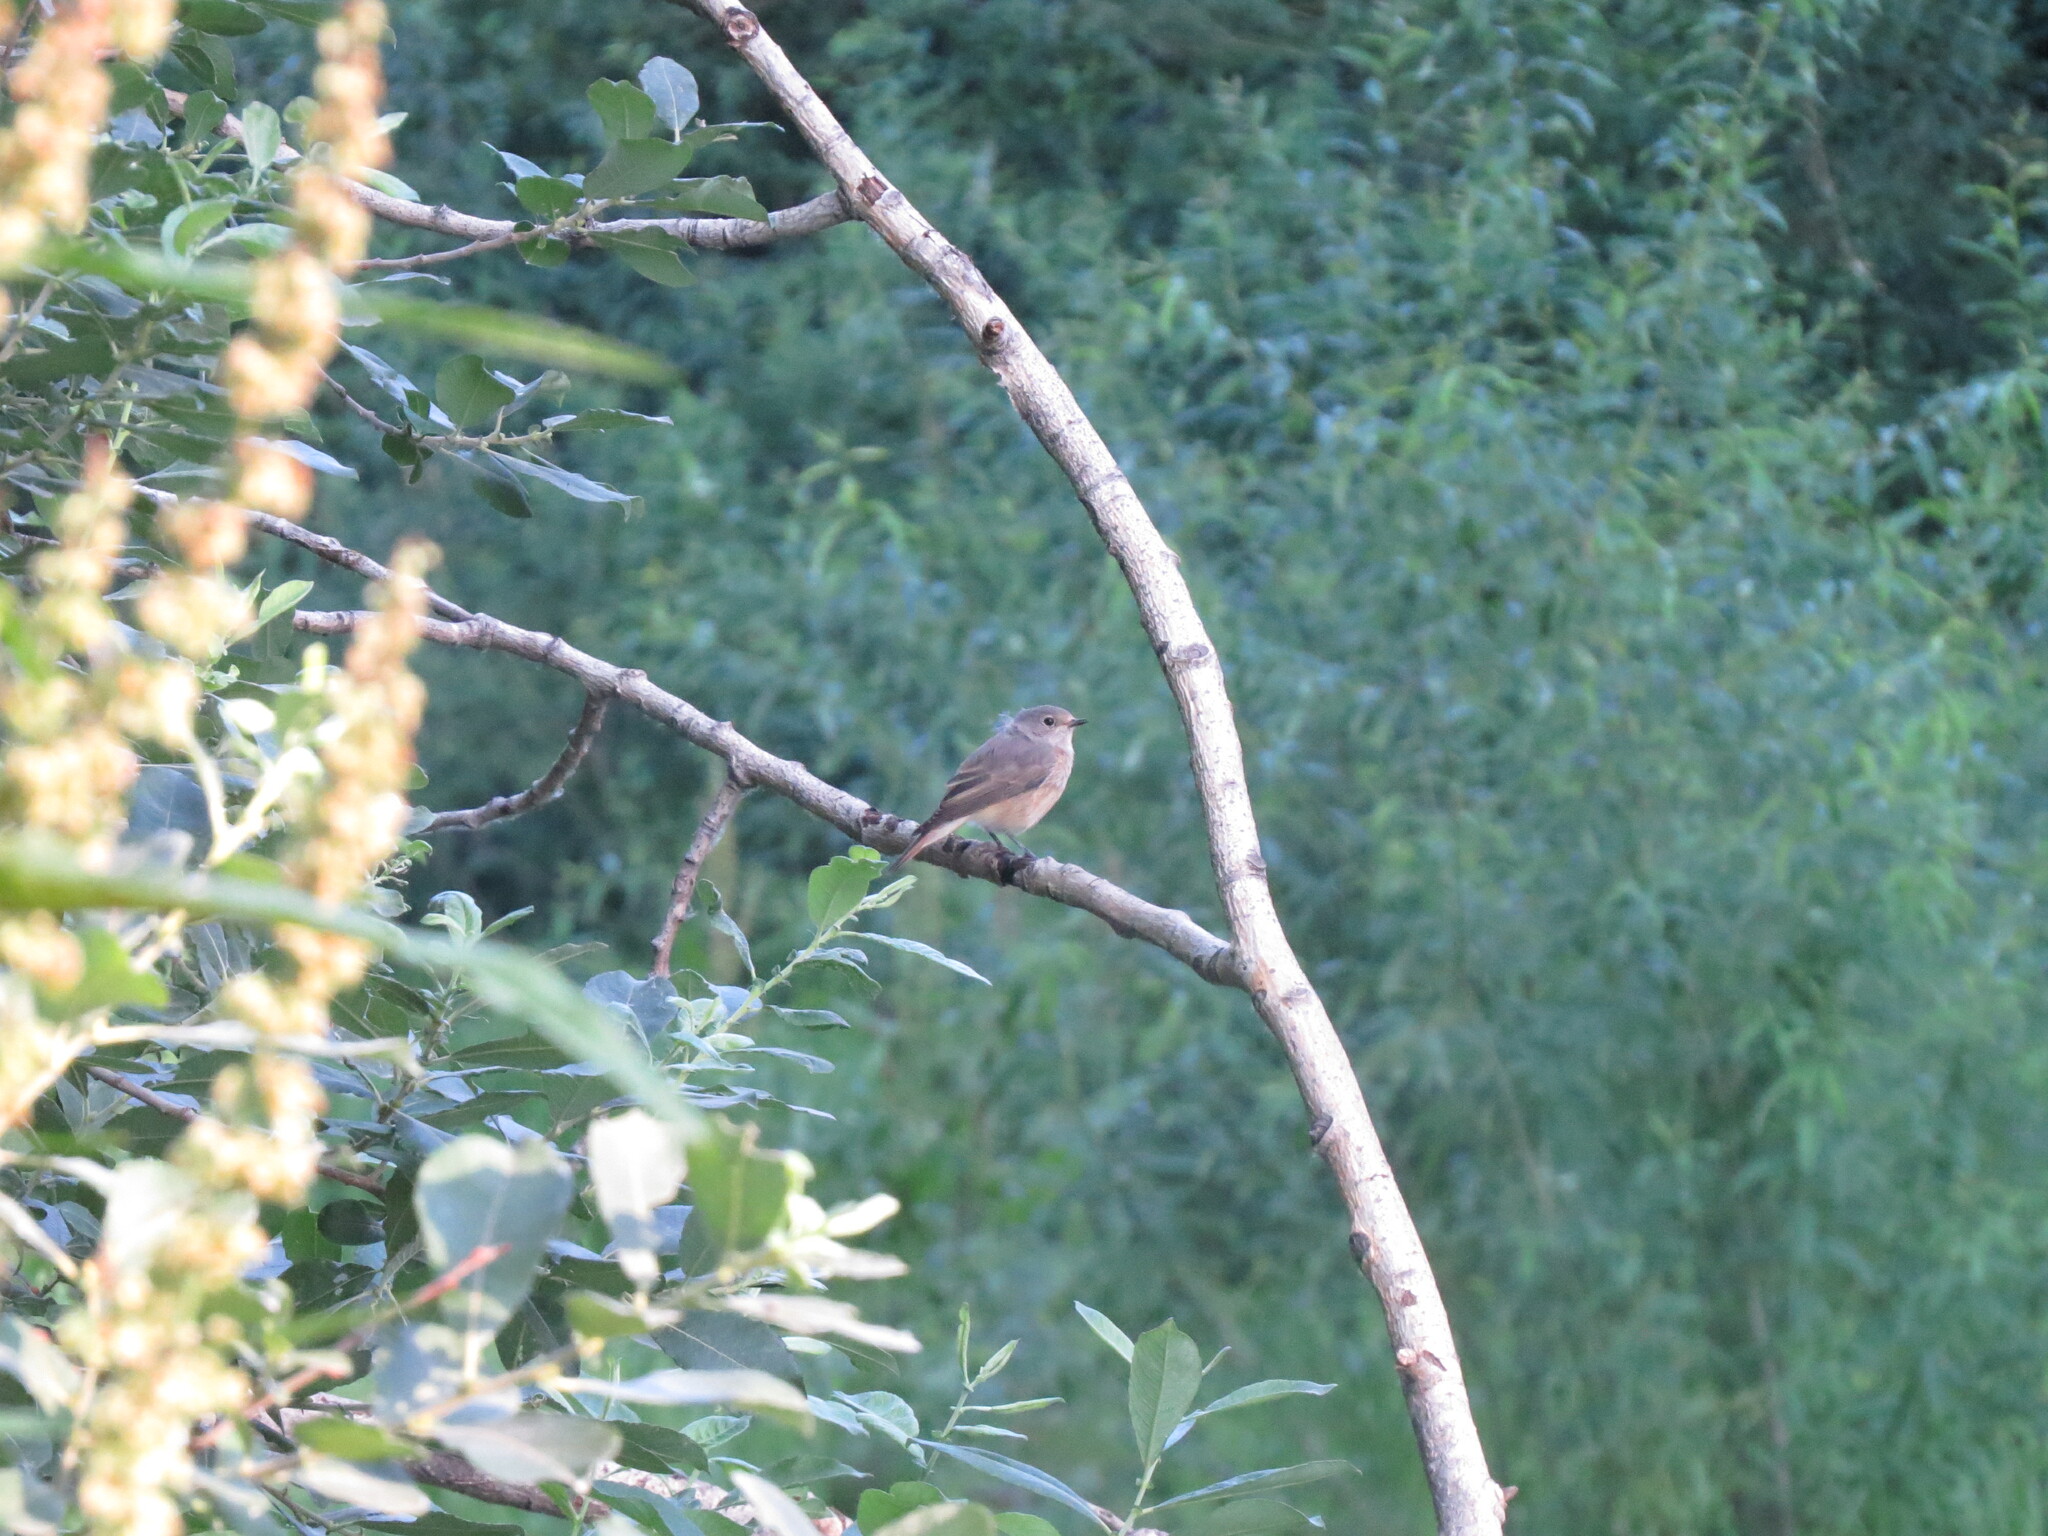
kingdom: Animalia
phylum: Chordata
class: Aves
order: Passeriformes
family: Muscicapidae
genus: Phoenicurus
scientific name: Phoenicurus phoenicurus
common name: Common redstart
